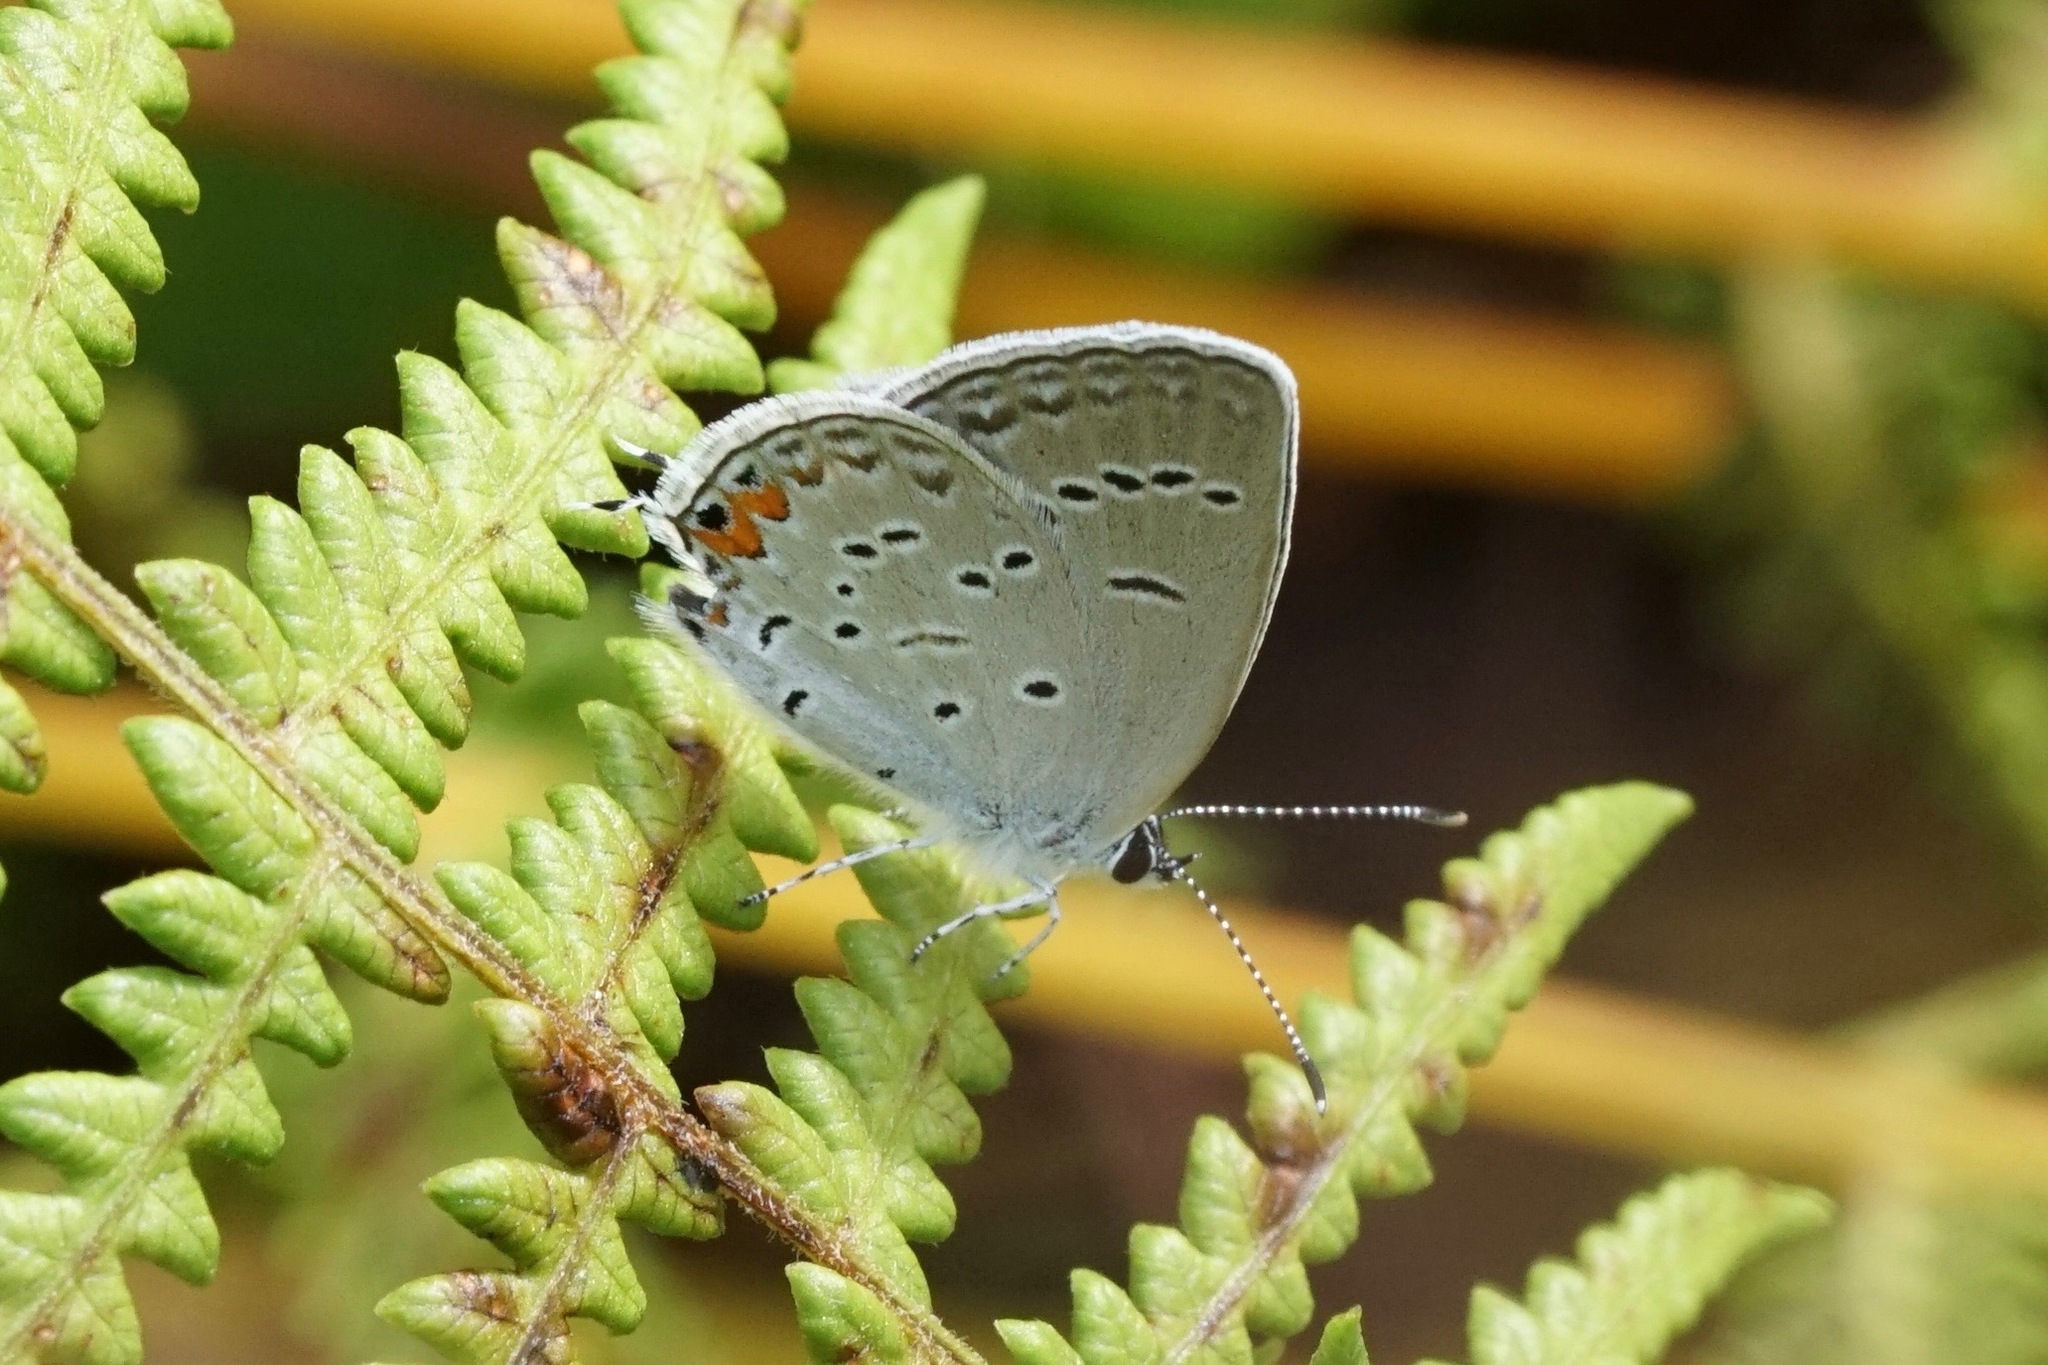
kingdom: Animalia
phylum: Arthropoda
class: Insecta
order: Lepidoptera
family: Lycaenidae
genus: Elkalyce
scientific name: Elkalyce comyntas
